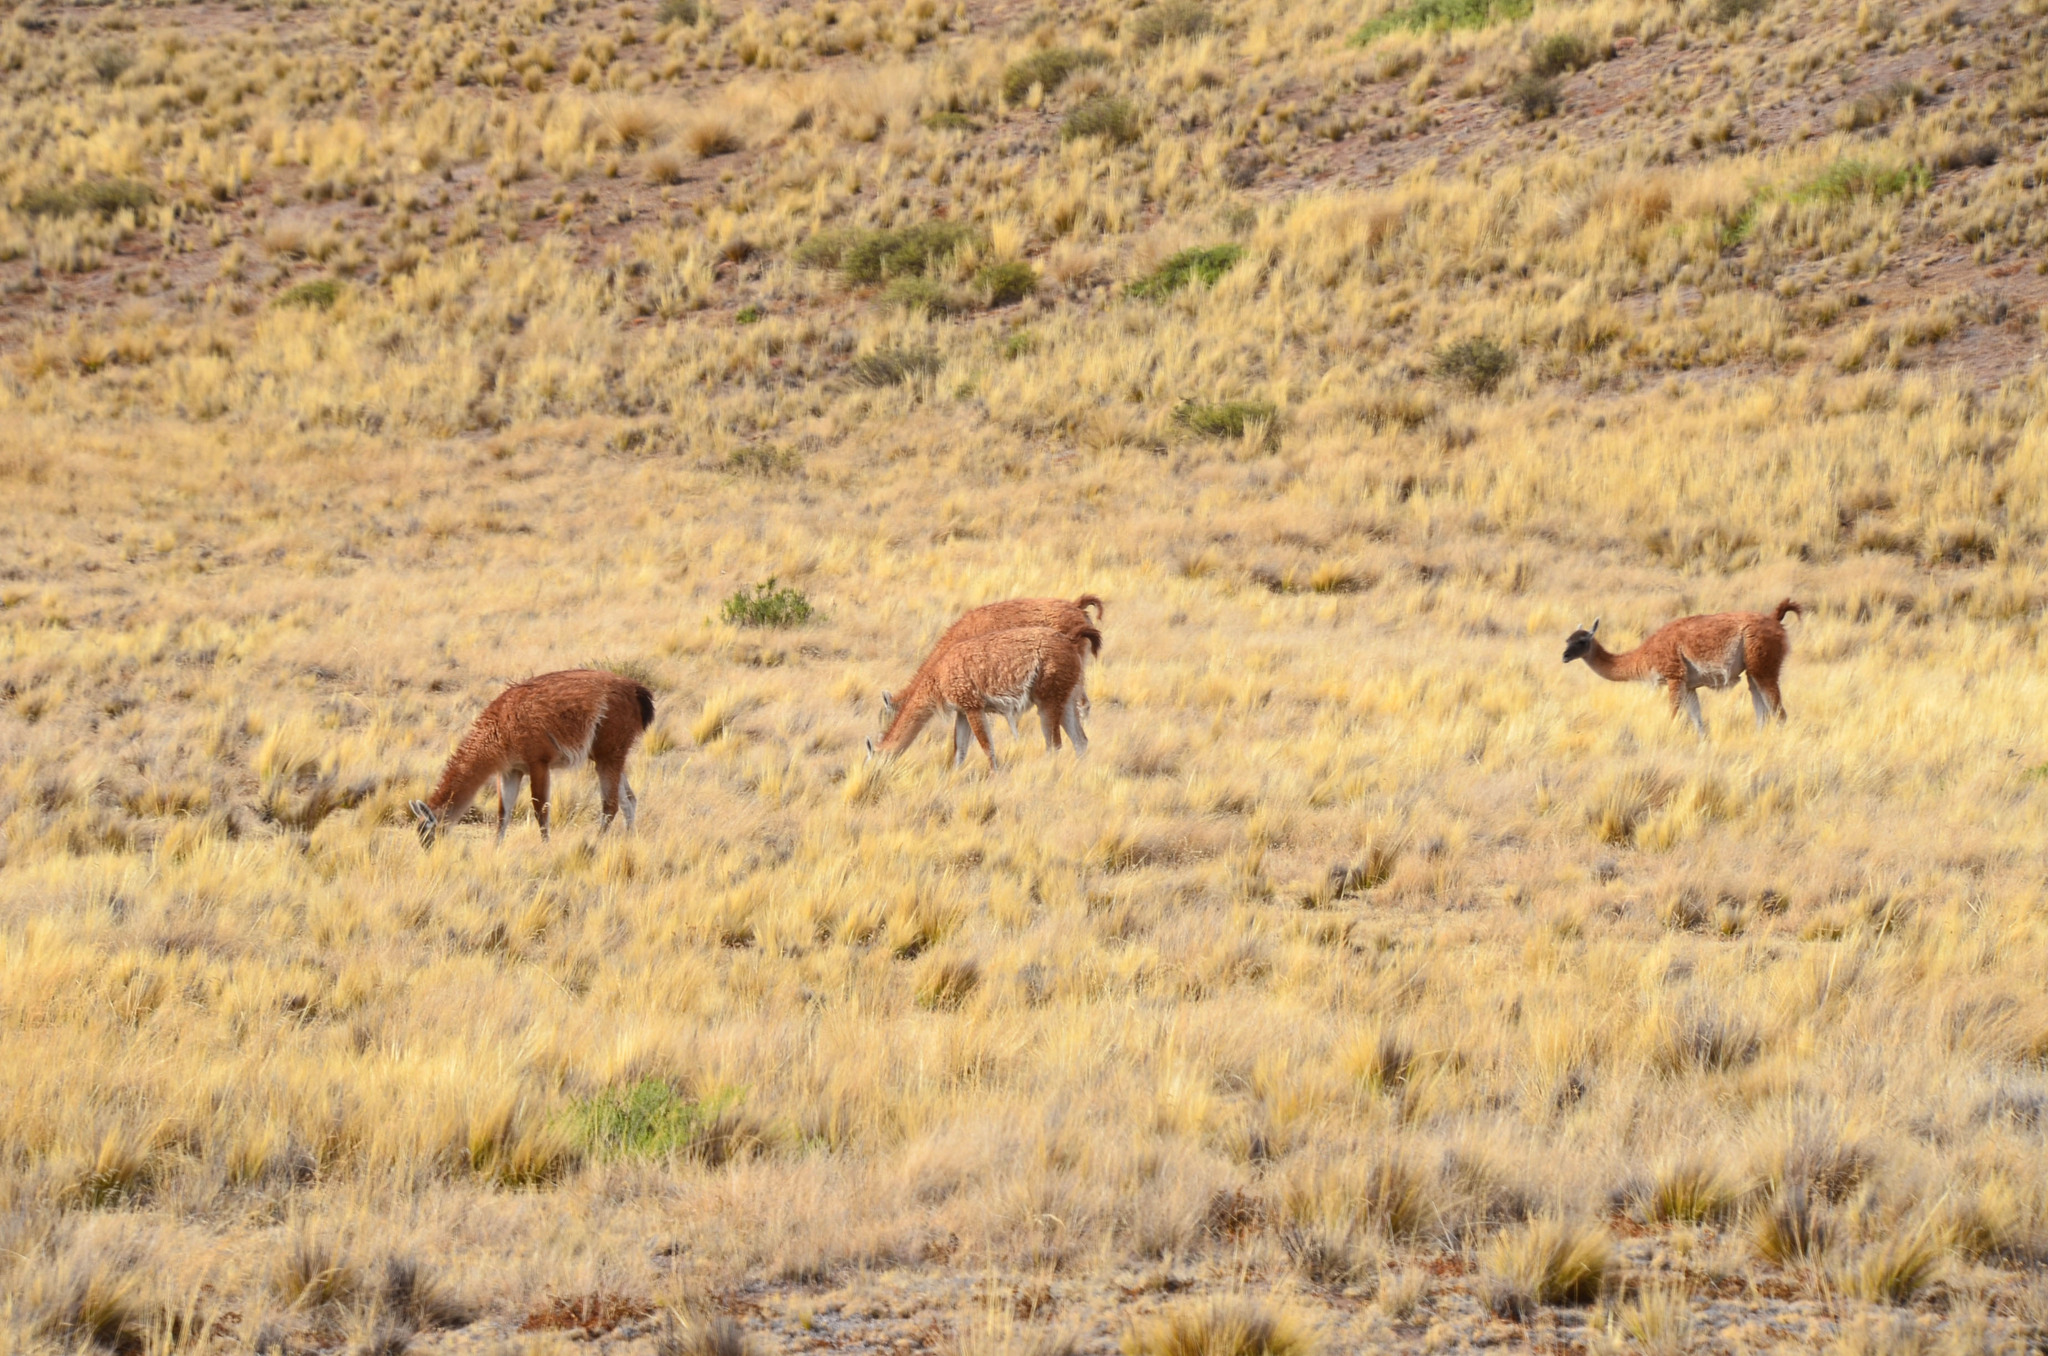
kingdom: Animalia
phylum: Chordata
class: Mammalia
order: Artiodactyla
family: Camelidae
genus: Lama
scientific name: Lama glama
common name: Llama
